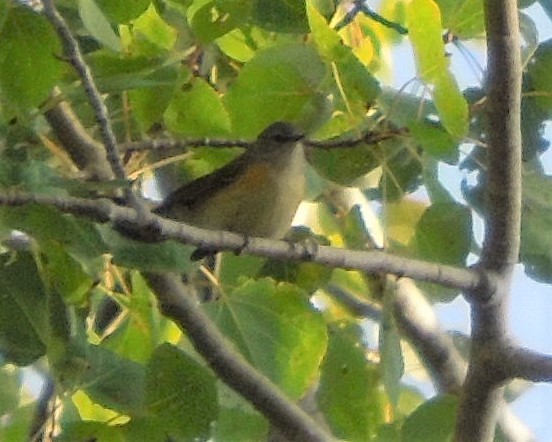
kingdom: Animalia
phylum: Chordata
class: Aves
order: Passeriformes
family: Parulidae
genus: Setophaga
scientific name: Setophaga ruticilla
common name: American redstart
